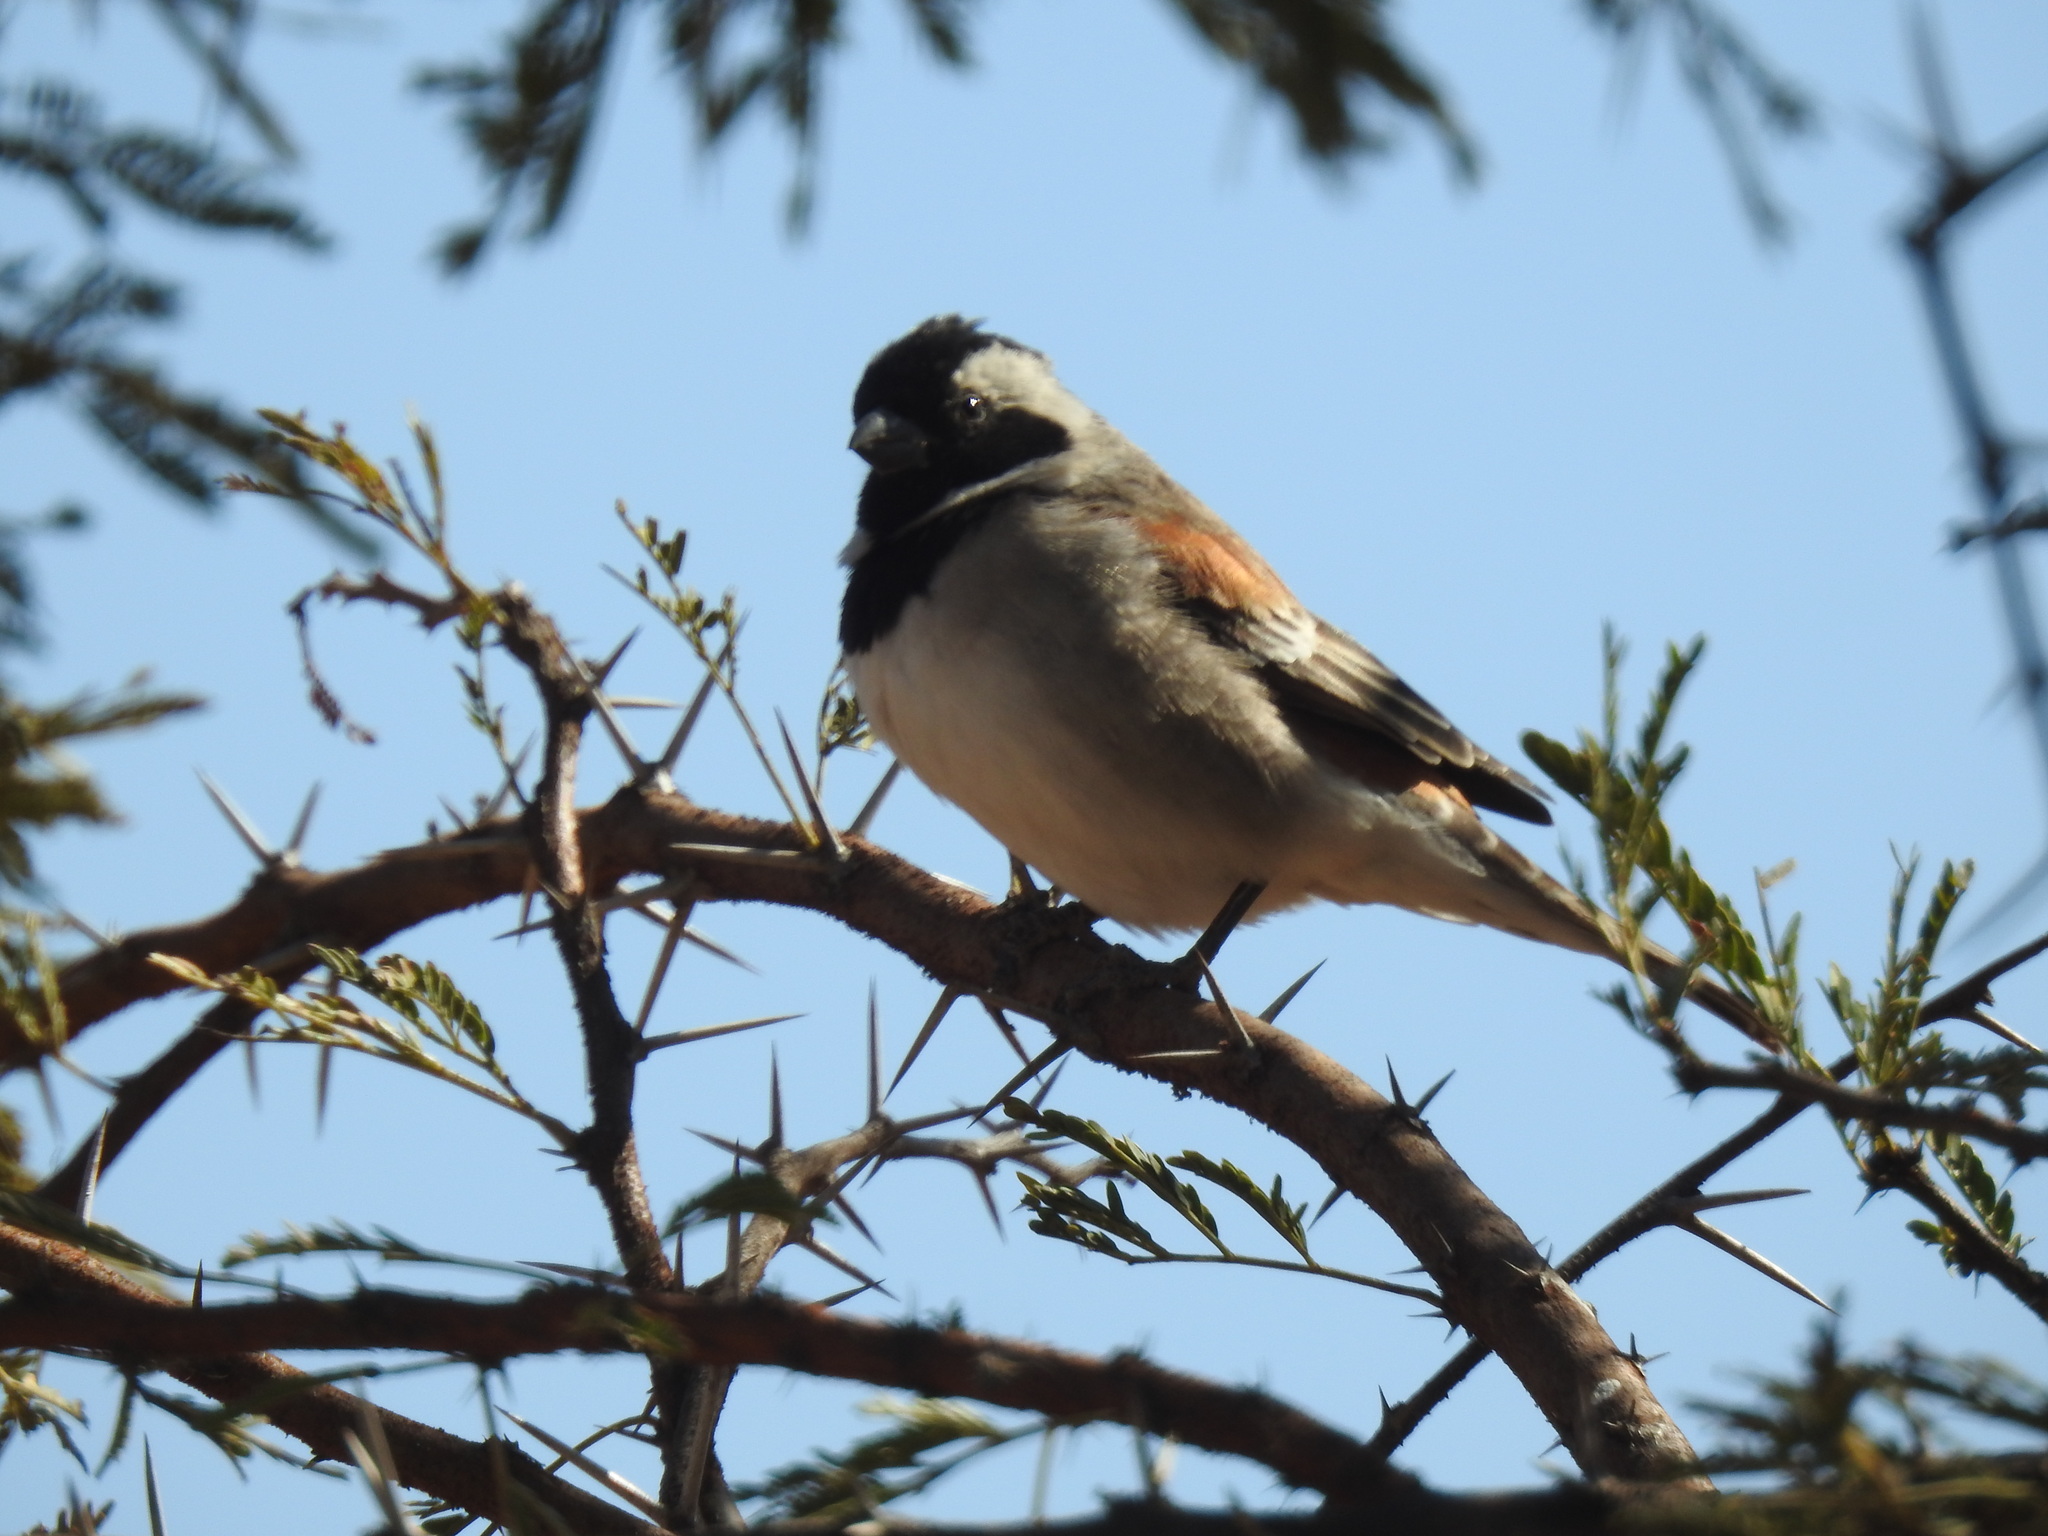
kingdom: Animalia
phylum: Chordata
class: Aves
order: Passeriformes
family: Passeridae
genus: Passer
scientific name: Passer melanurus
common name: Cape sparrow
